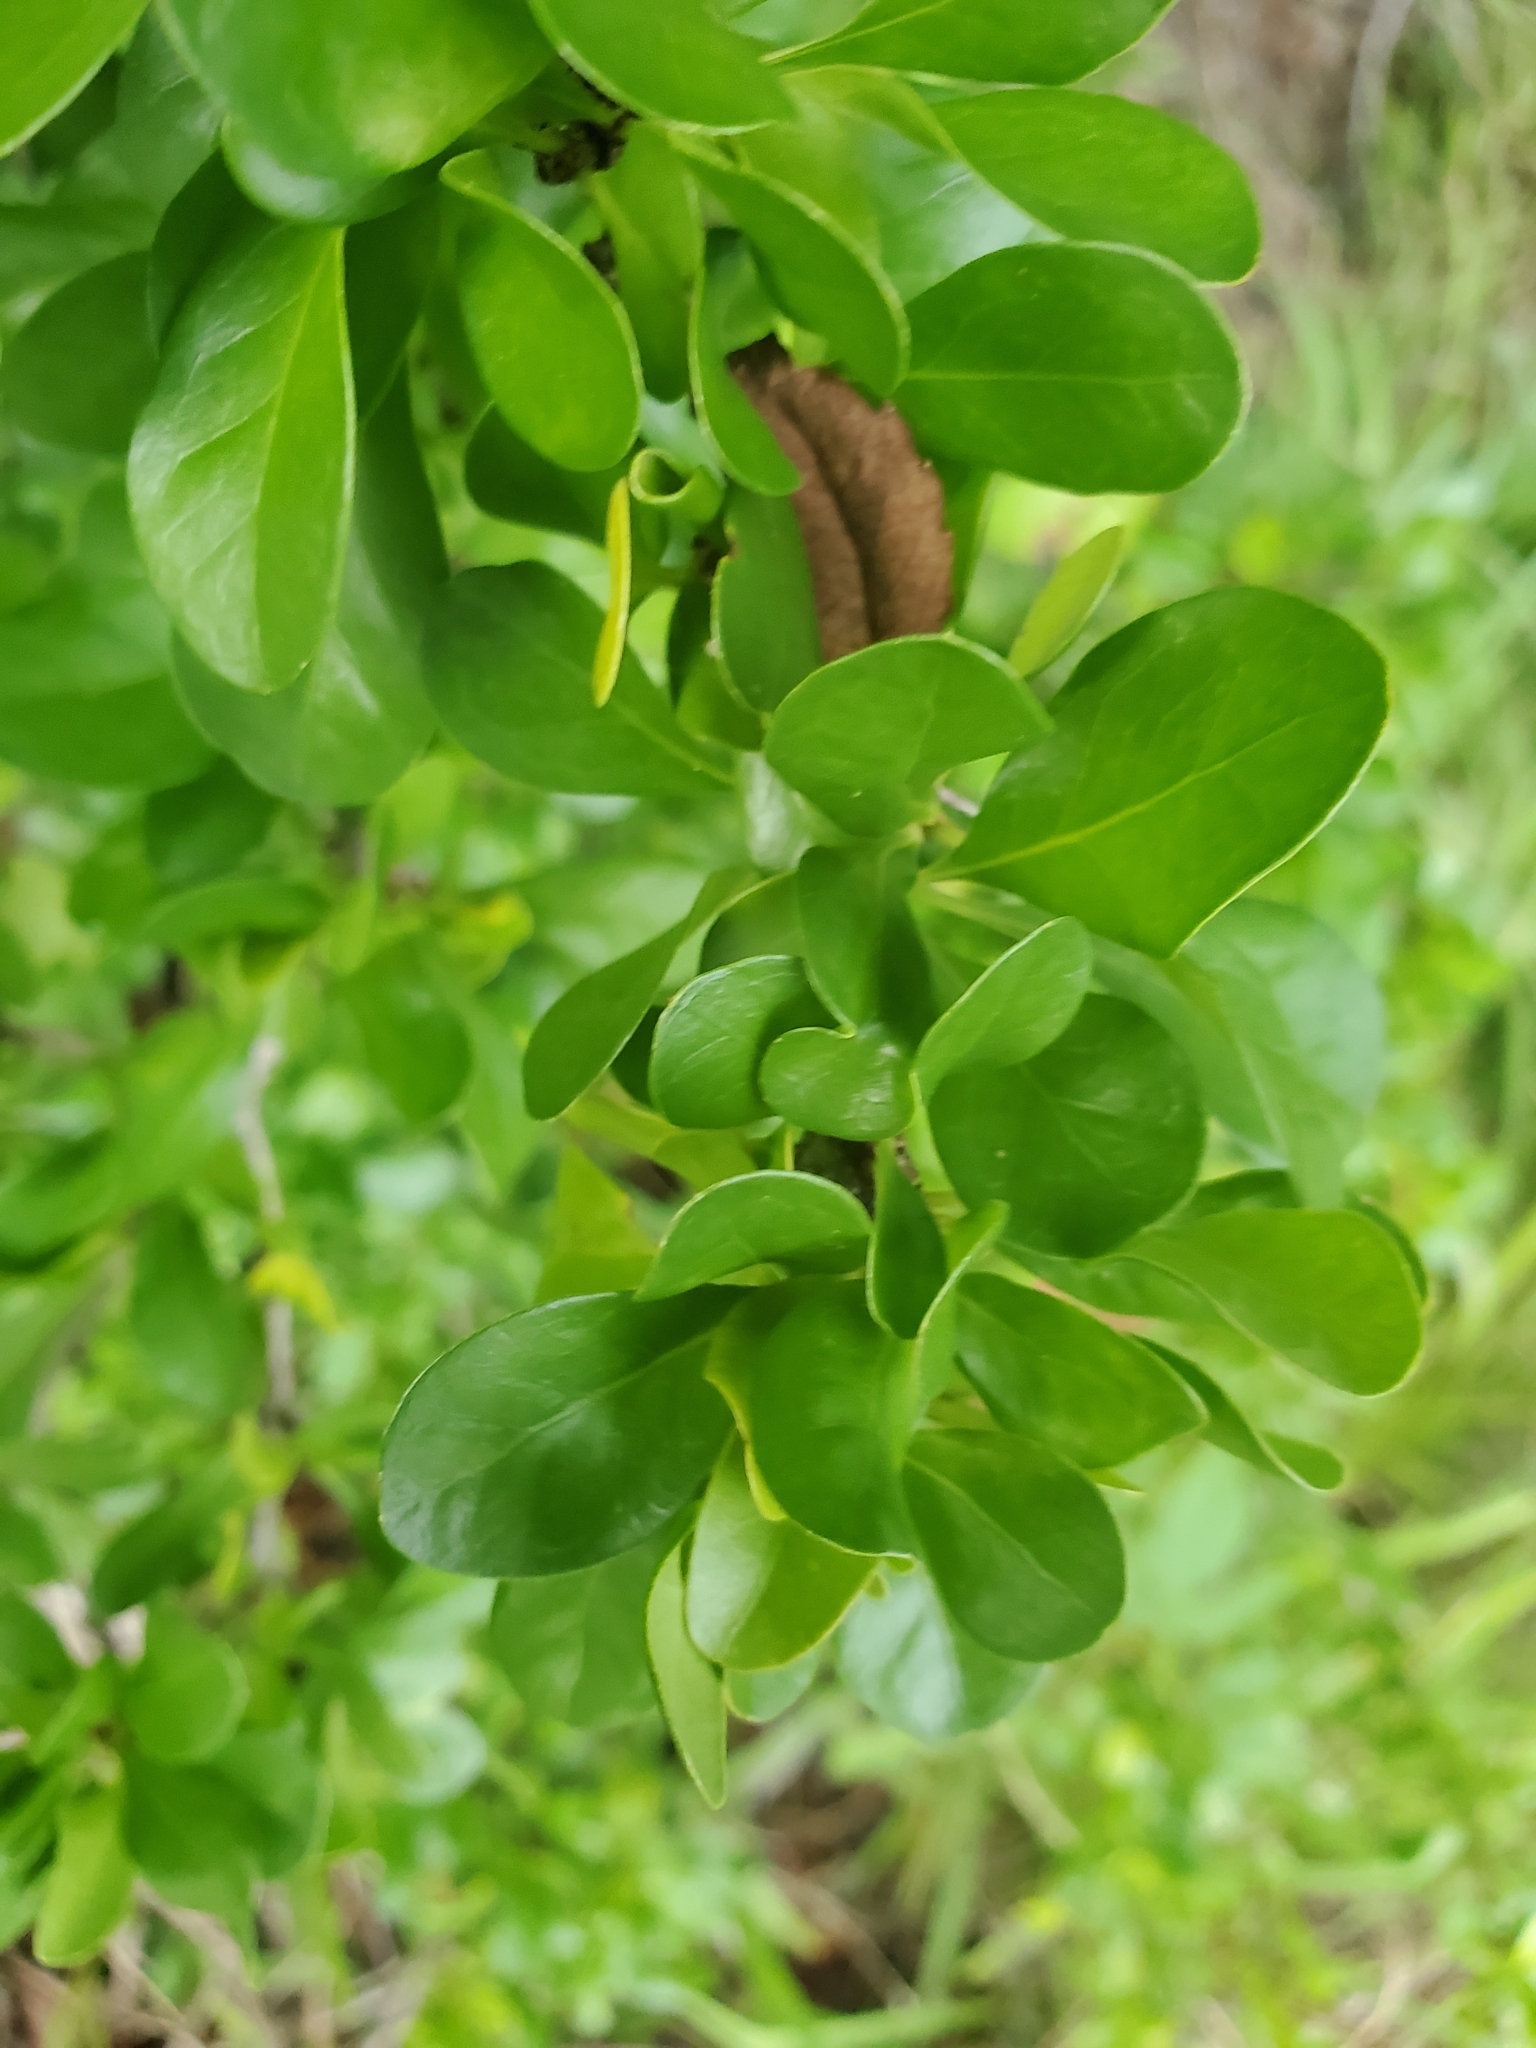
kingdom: Plantae
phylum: Tracheophyta
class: Magnoliopsida
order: Gentianales
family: Rubiaceae
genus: Randia
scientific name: Randia aculeata
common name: Inkberry
